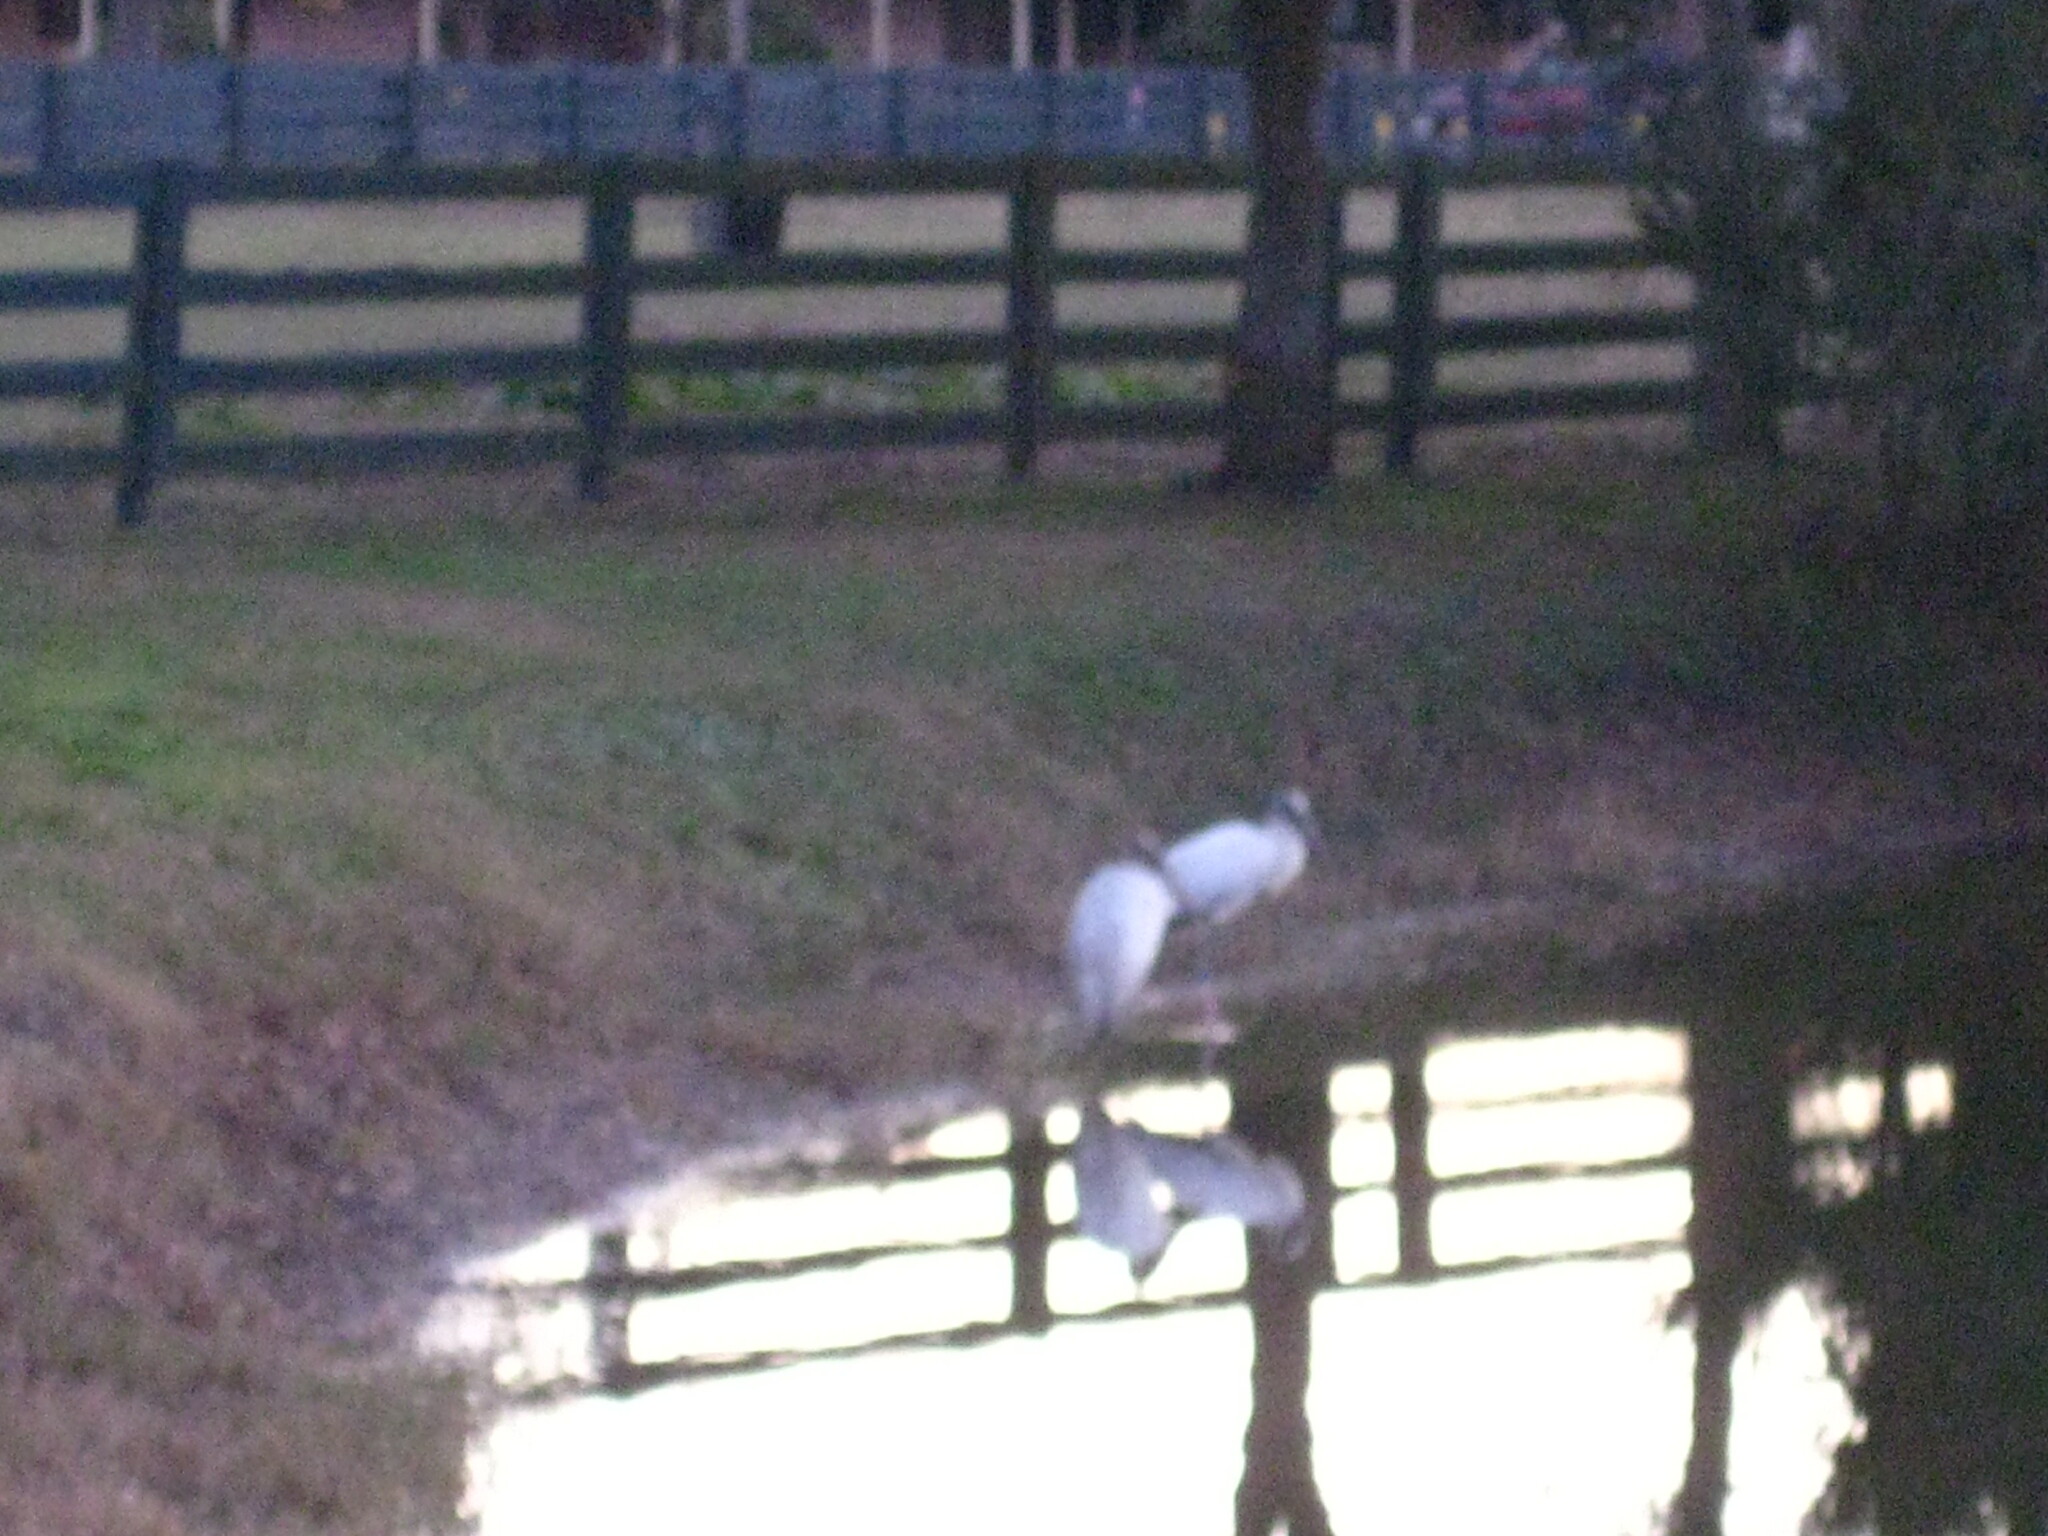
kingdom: Animalia
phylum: Chordata
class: Aves
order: Ciconiiformes
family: Ciconiidae
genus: Mycteria
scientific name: Mycteria americana
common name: Wood stork
